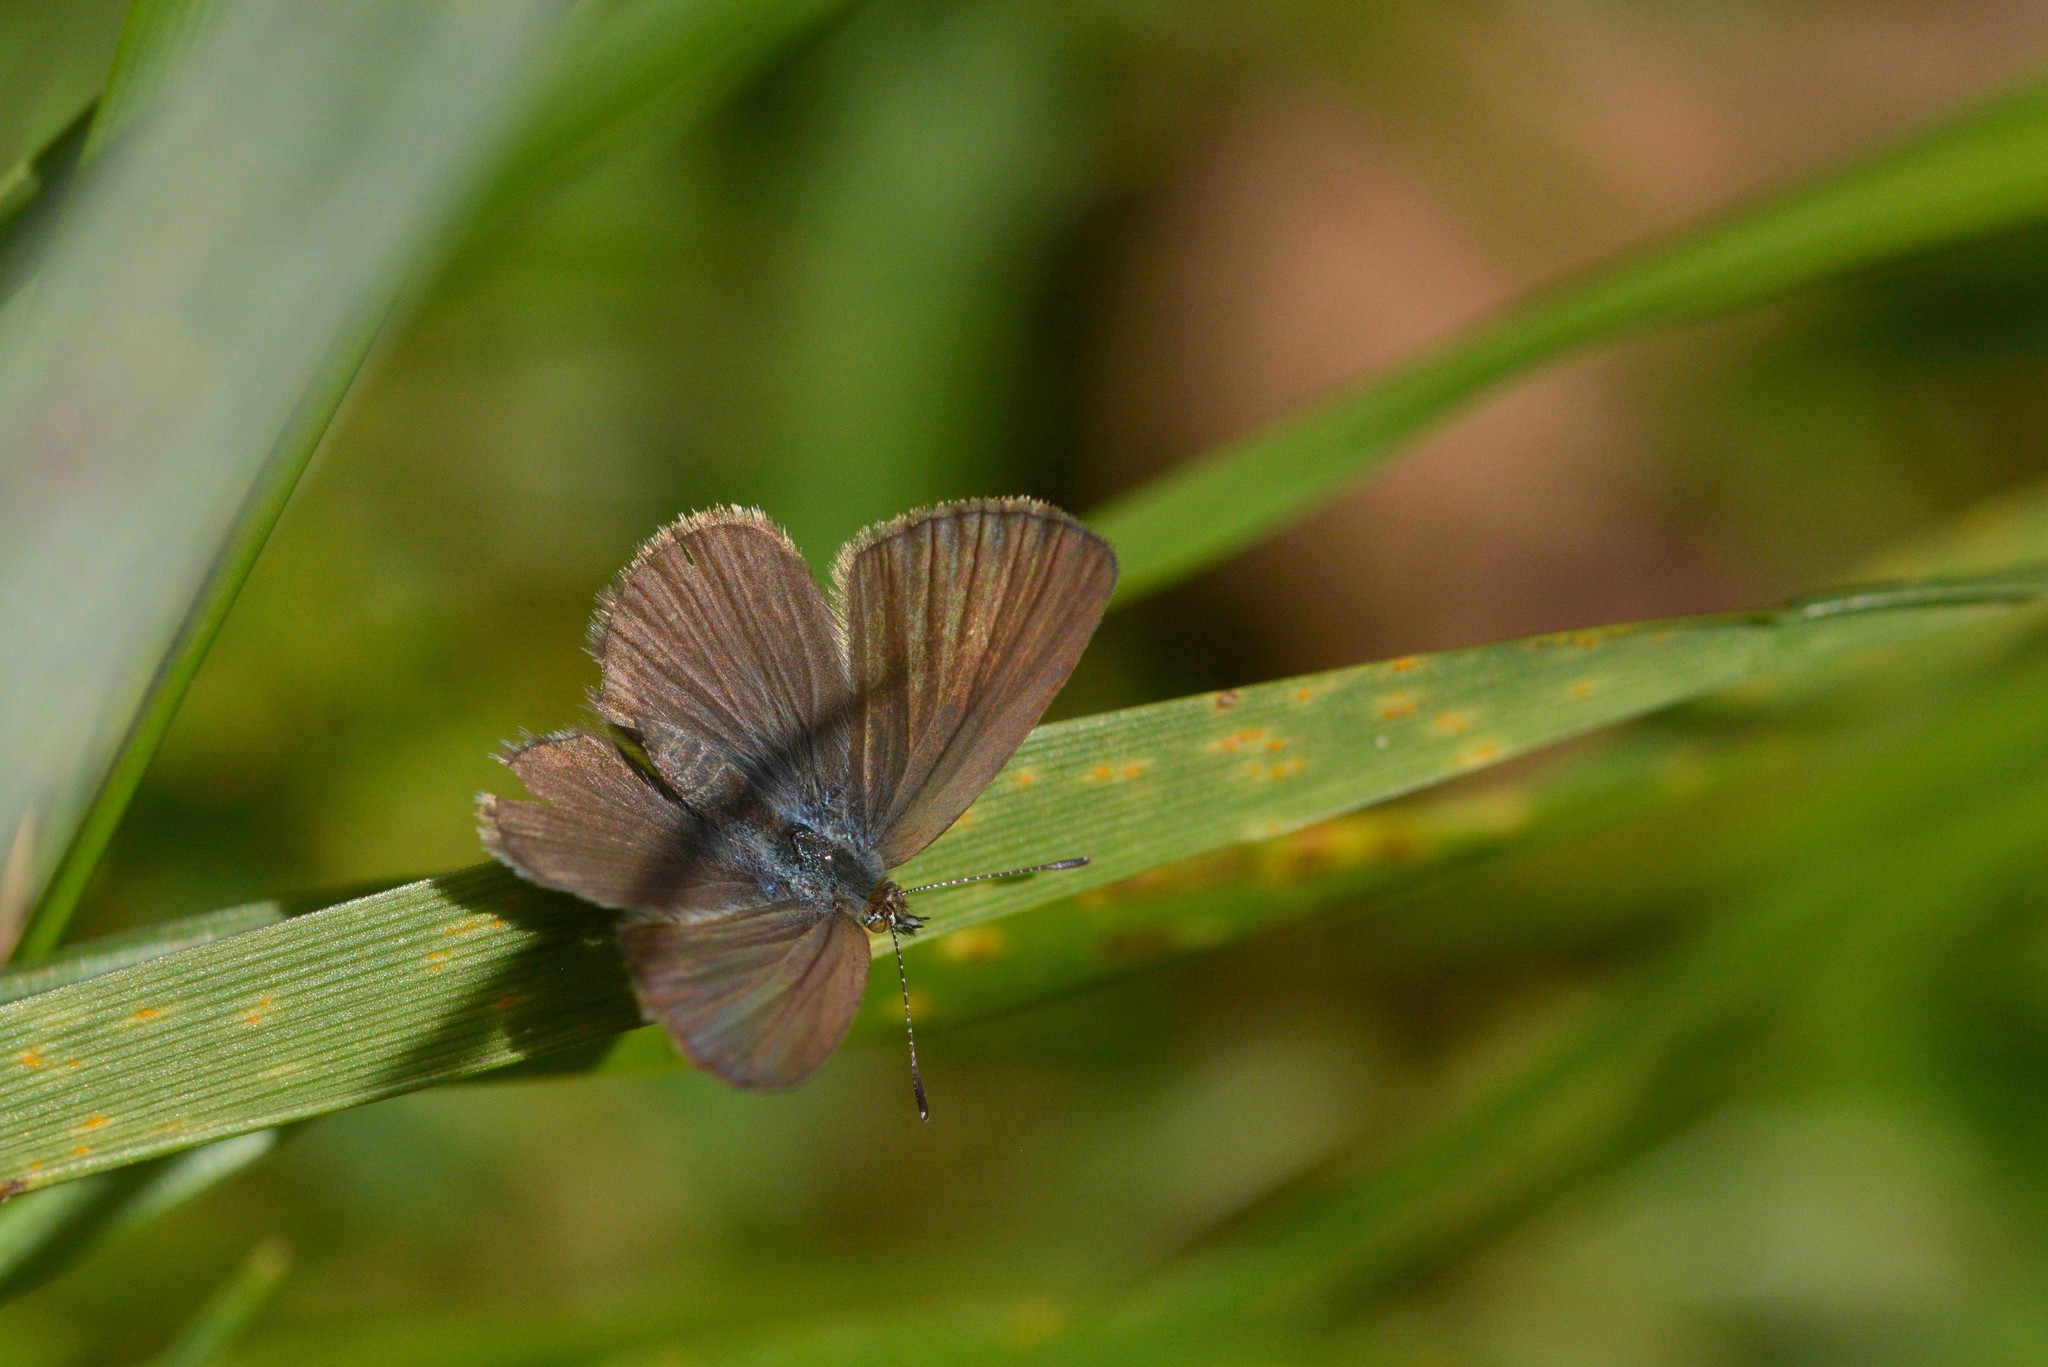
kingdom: Animalia
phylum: Arthropoda
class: Insecta
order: Lepidoptera
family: Lycaenidae
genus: Zizina
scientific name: Zizina otis
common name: Lesser grass blue
